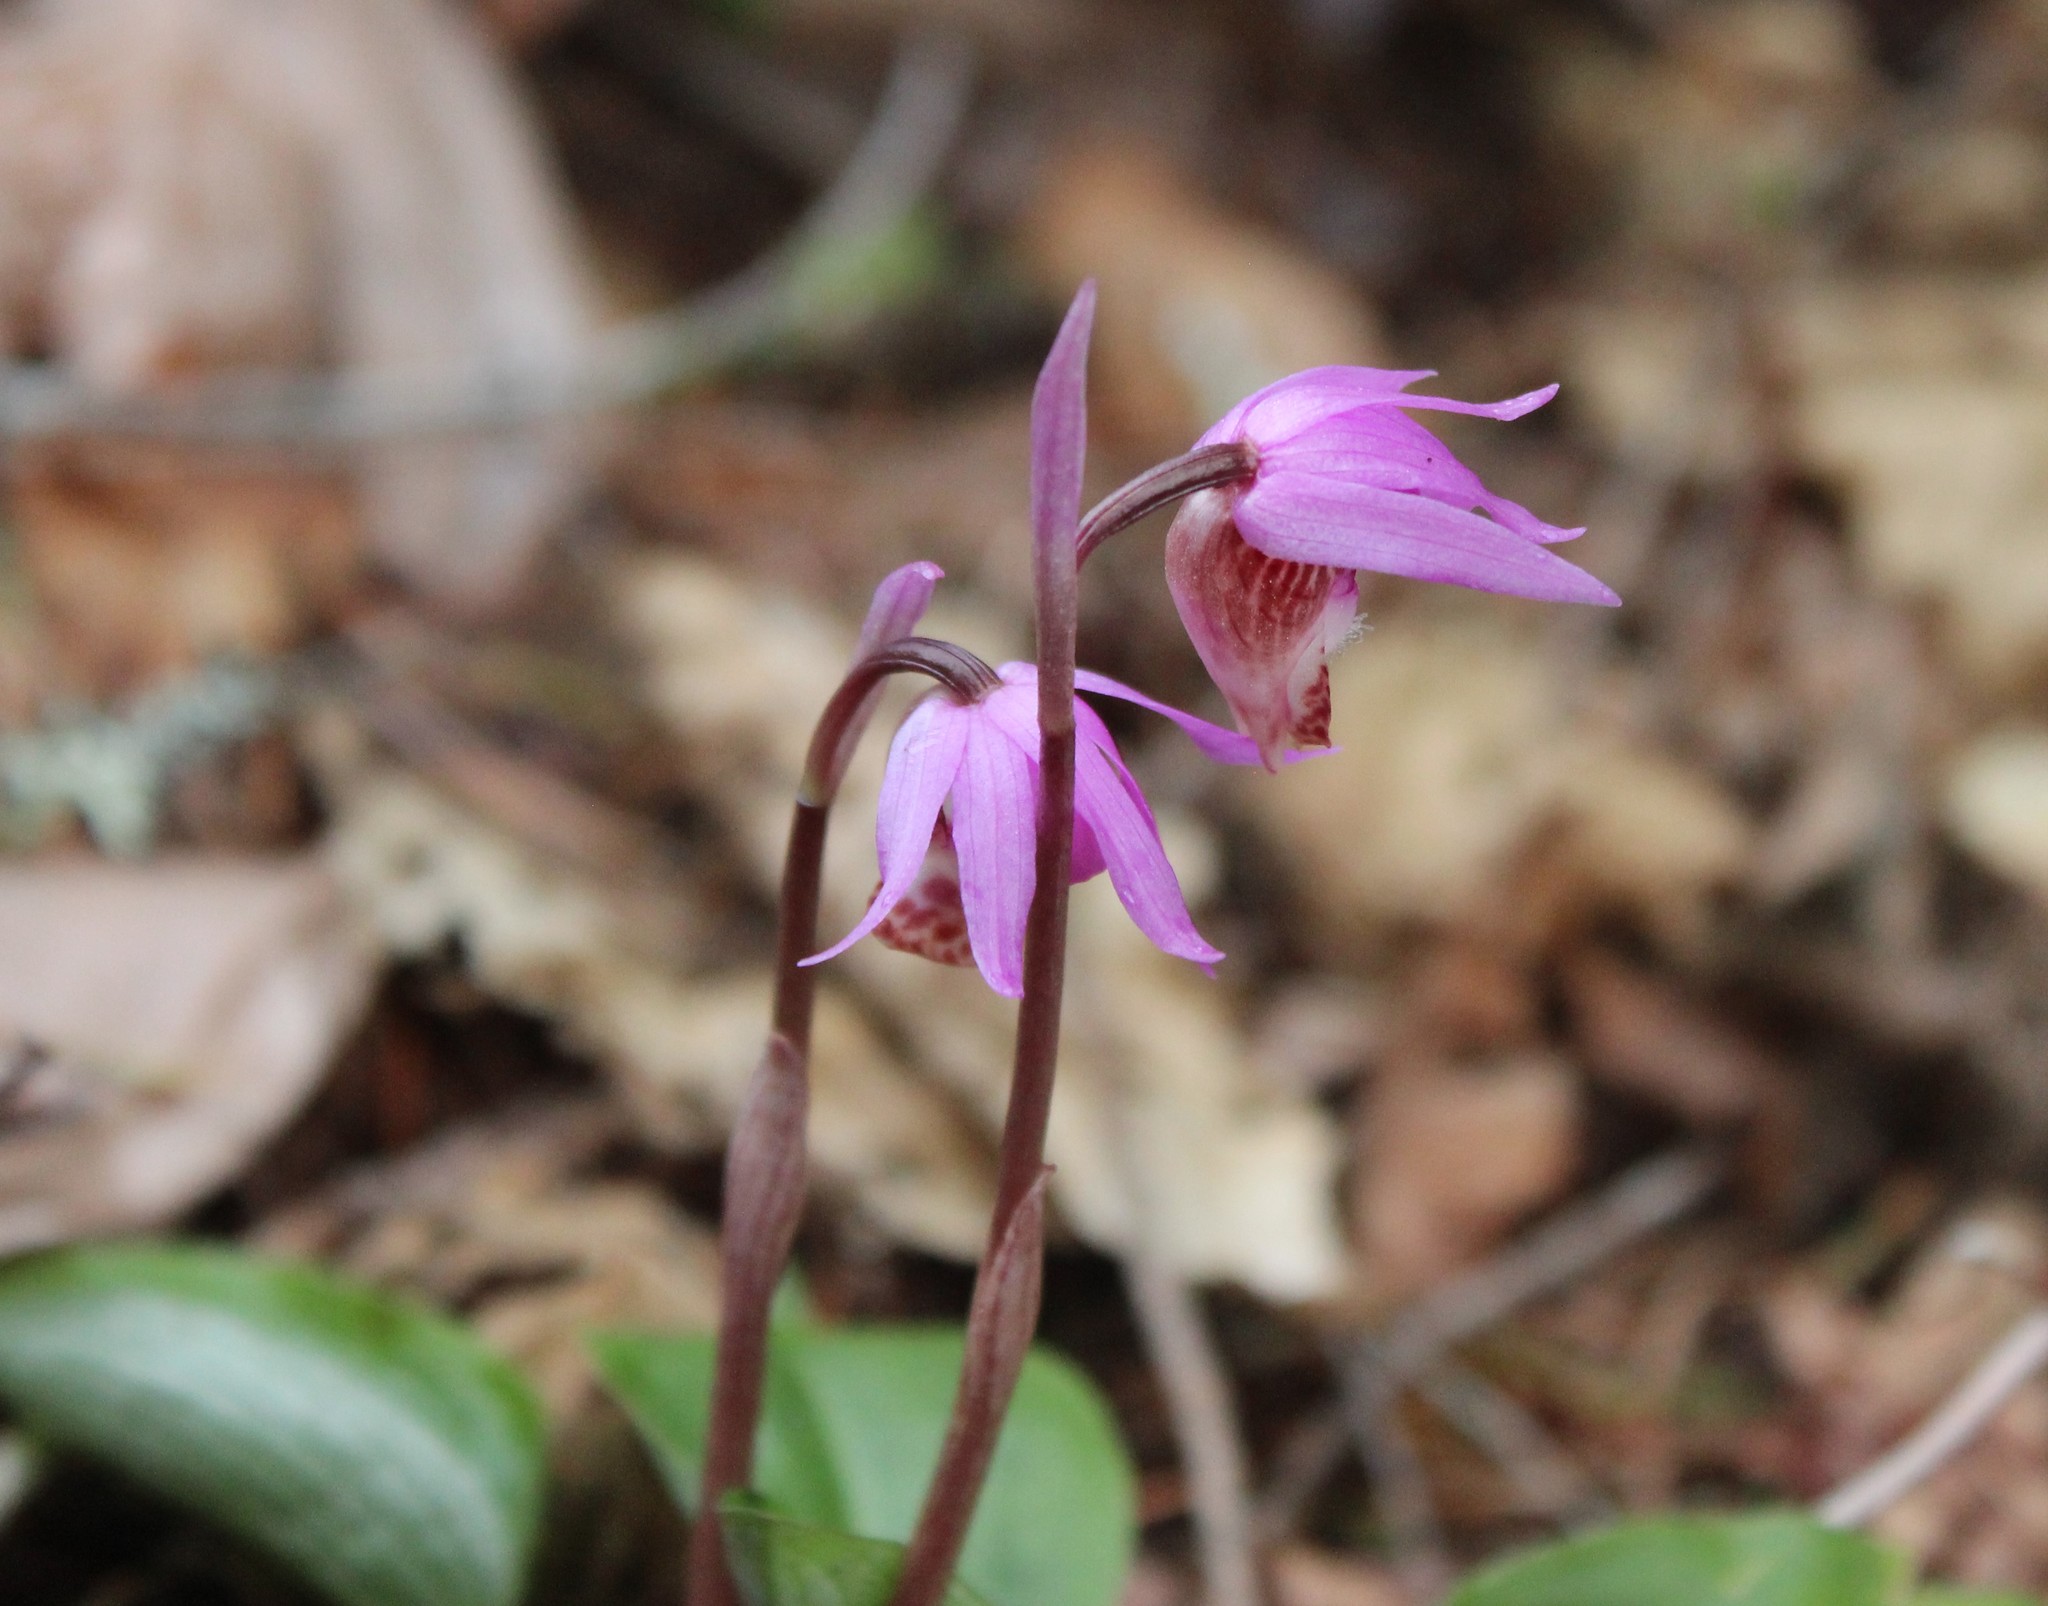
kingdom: Plantae
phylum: Tracheophyta
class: Liliopsida
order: Asparagales
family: Orchidaceae
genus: Calypso
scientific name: Calypso bulbosa
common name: Calypso
